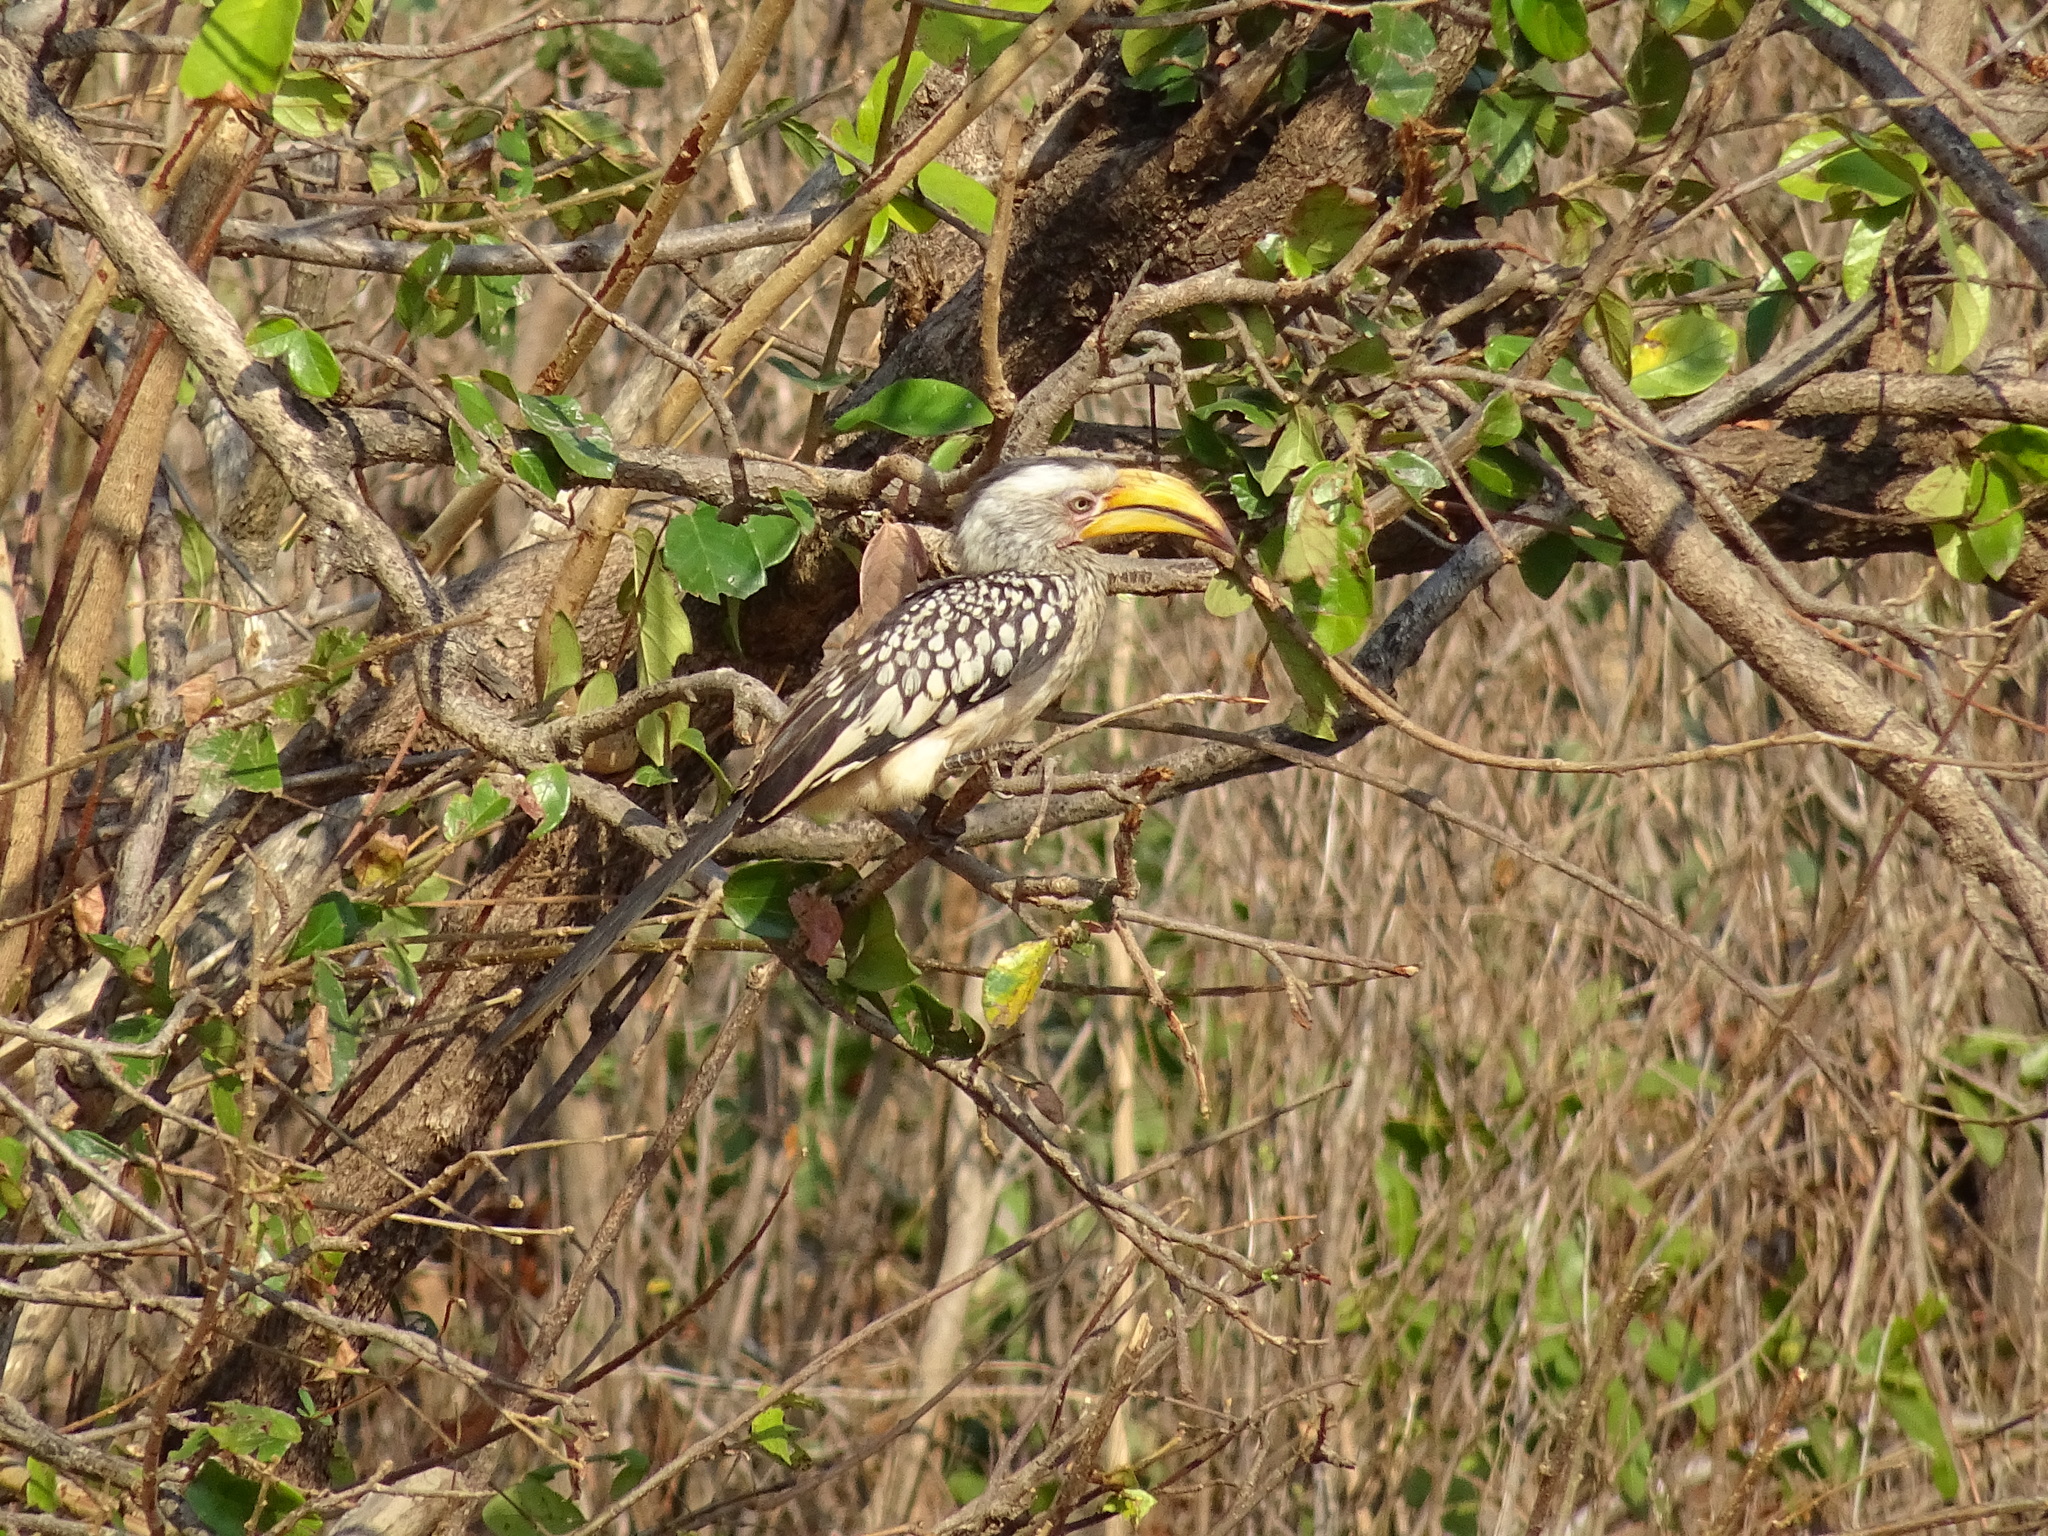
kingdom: Animalia
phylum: Chordata
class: Aves
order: Bucerotiformes
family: Bucerotidae
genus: Tockus
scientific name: Tockus leucomelas
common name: Southern yellow-billed hornbill
